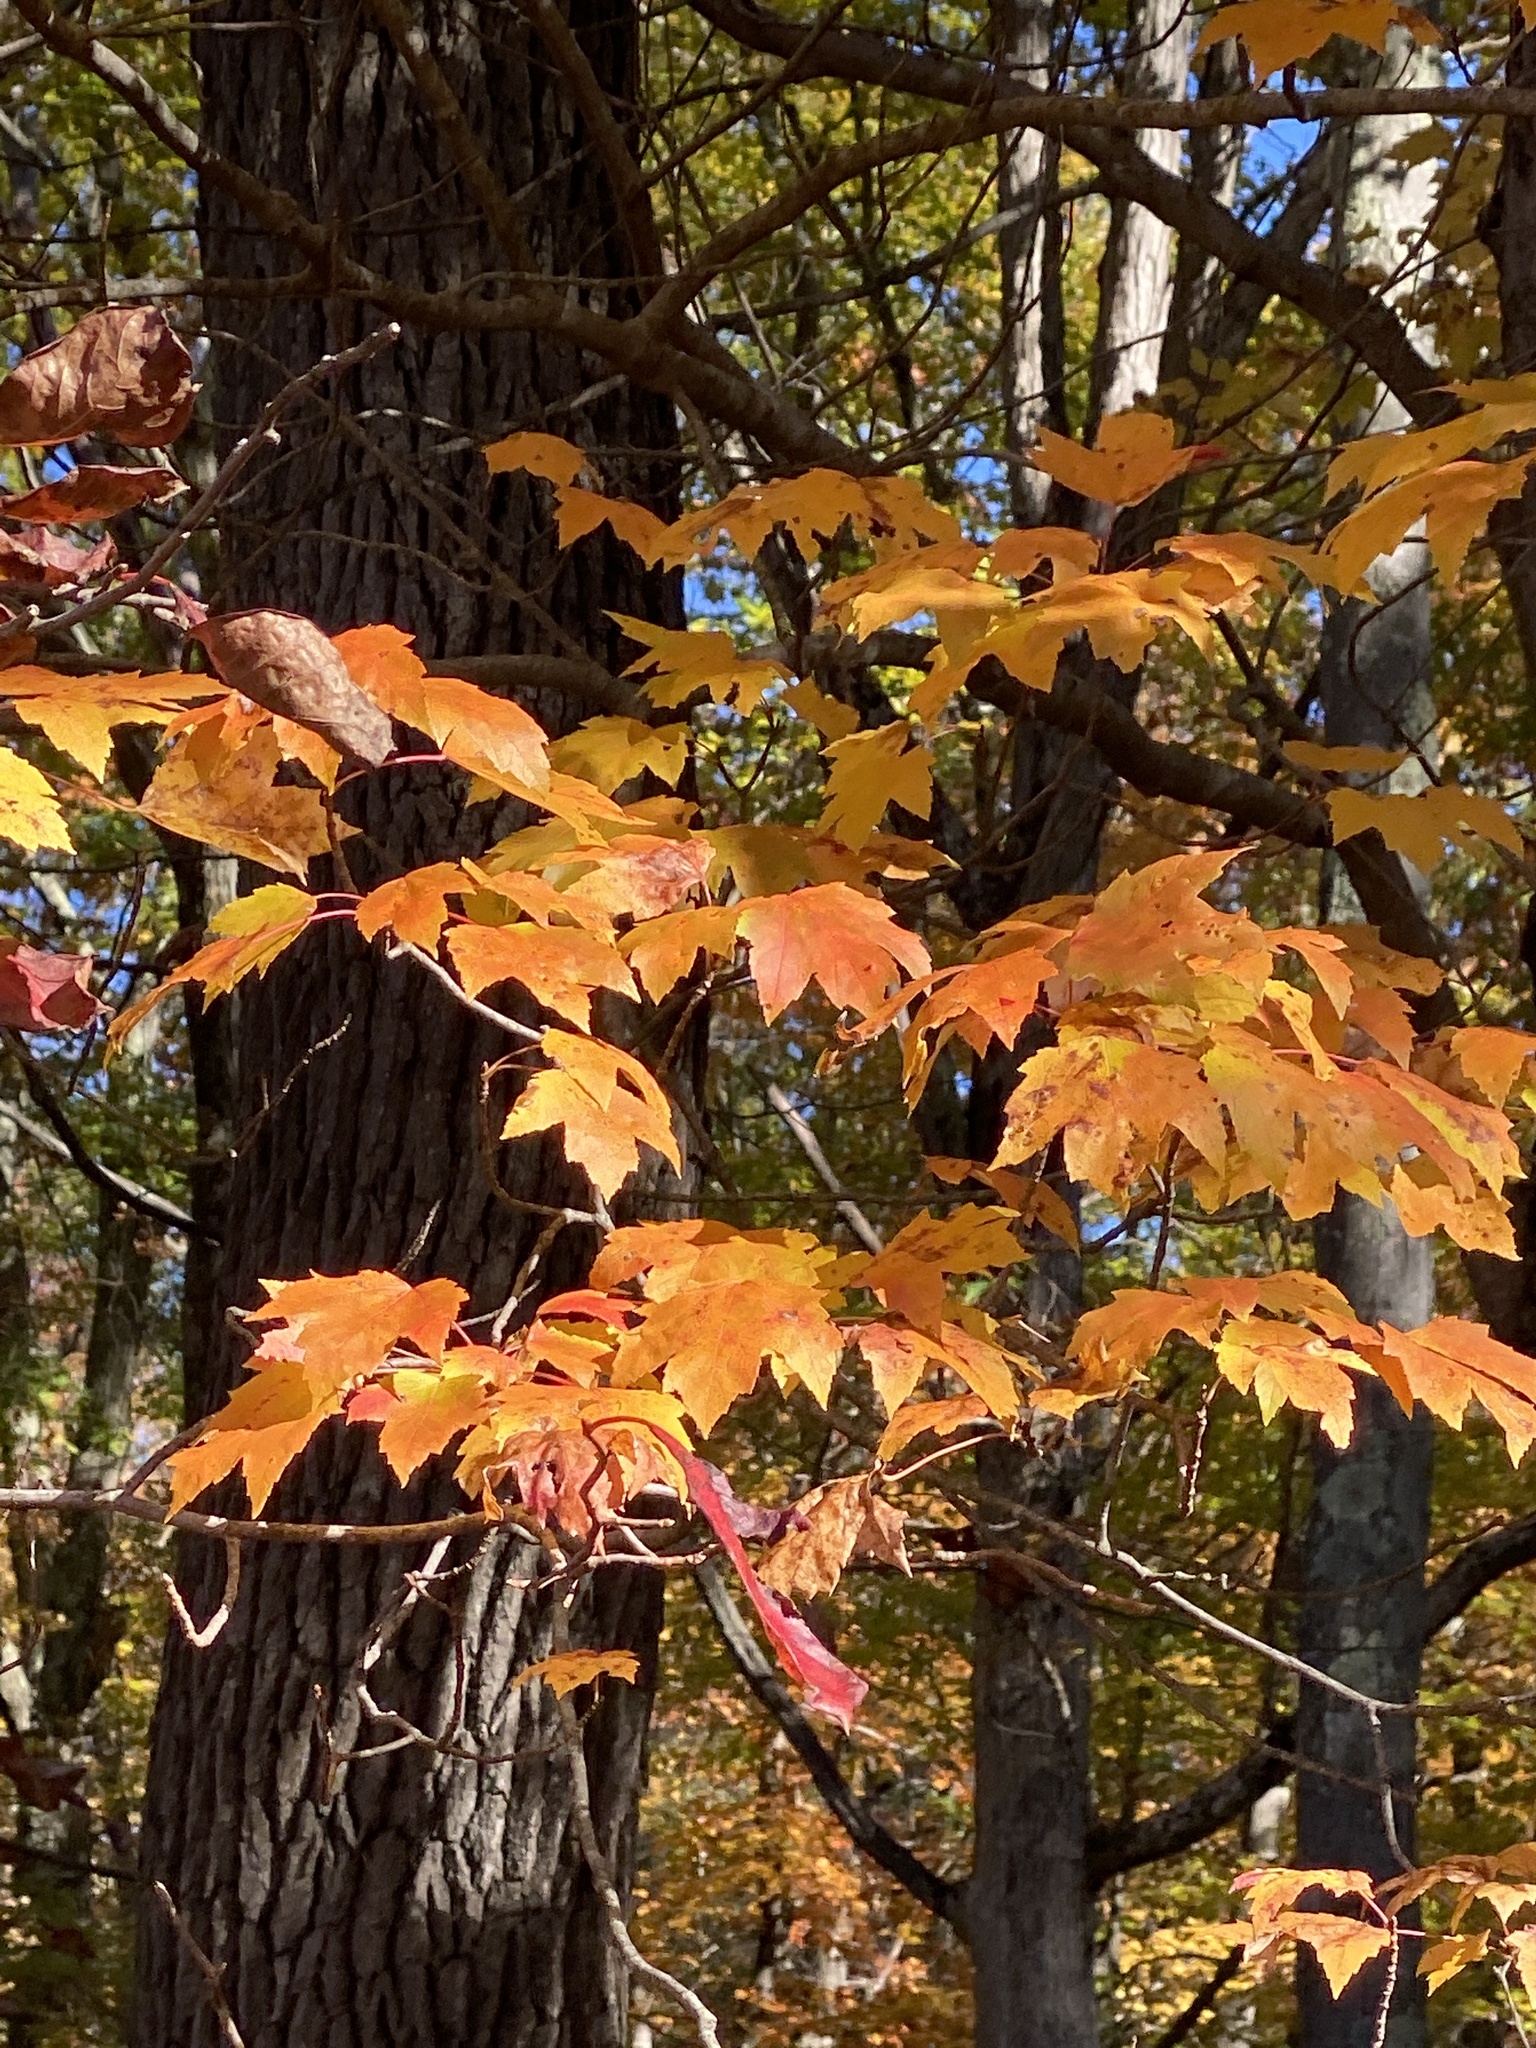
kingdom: Plantae
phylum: Tracheophyta
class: Magnoliopsida
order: Sapindales
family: Sapindaceae
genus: Acer
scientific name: Acer rubrum
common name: Red maple
